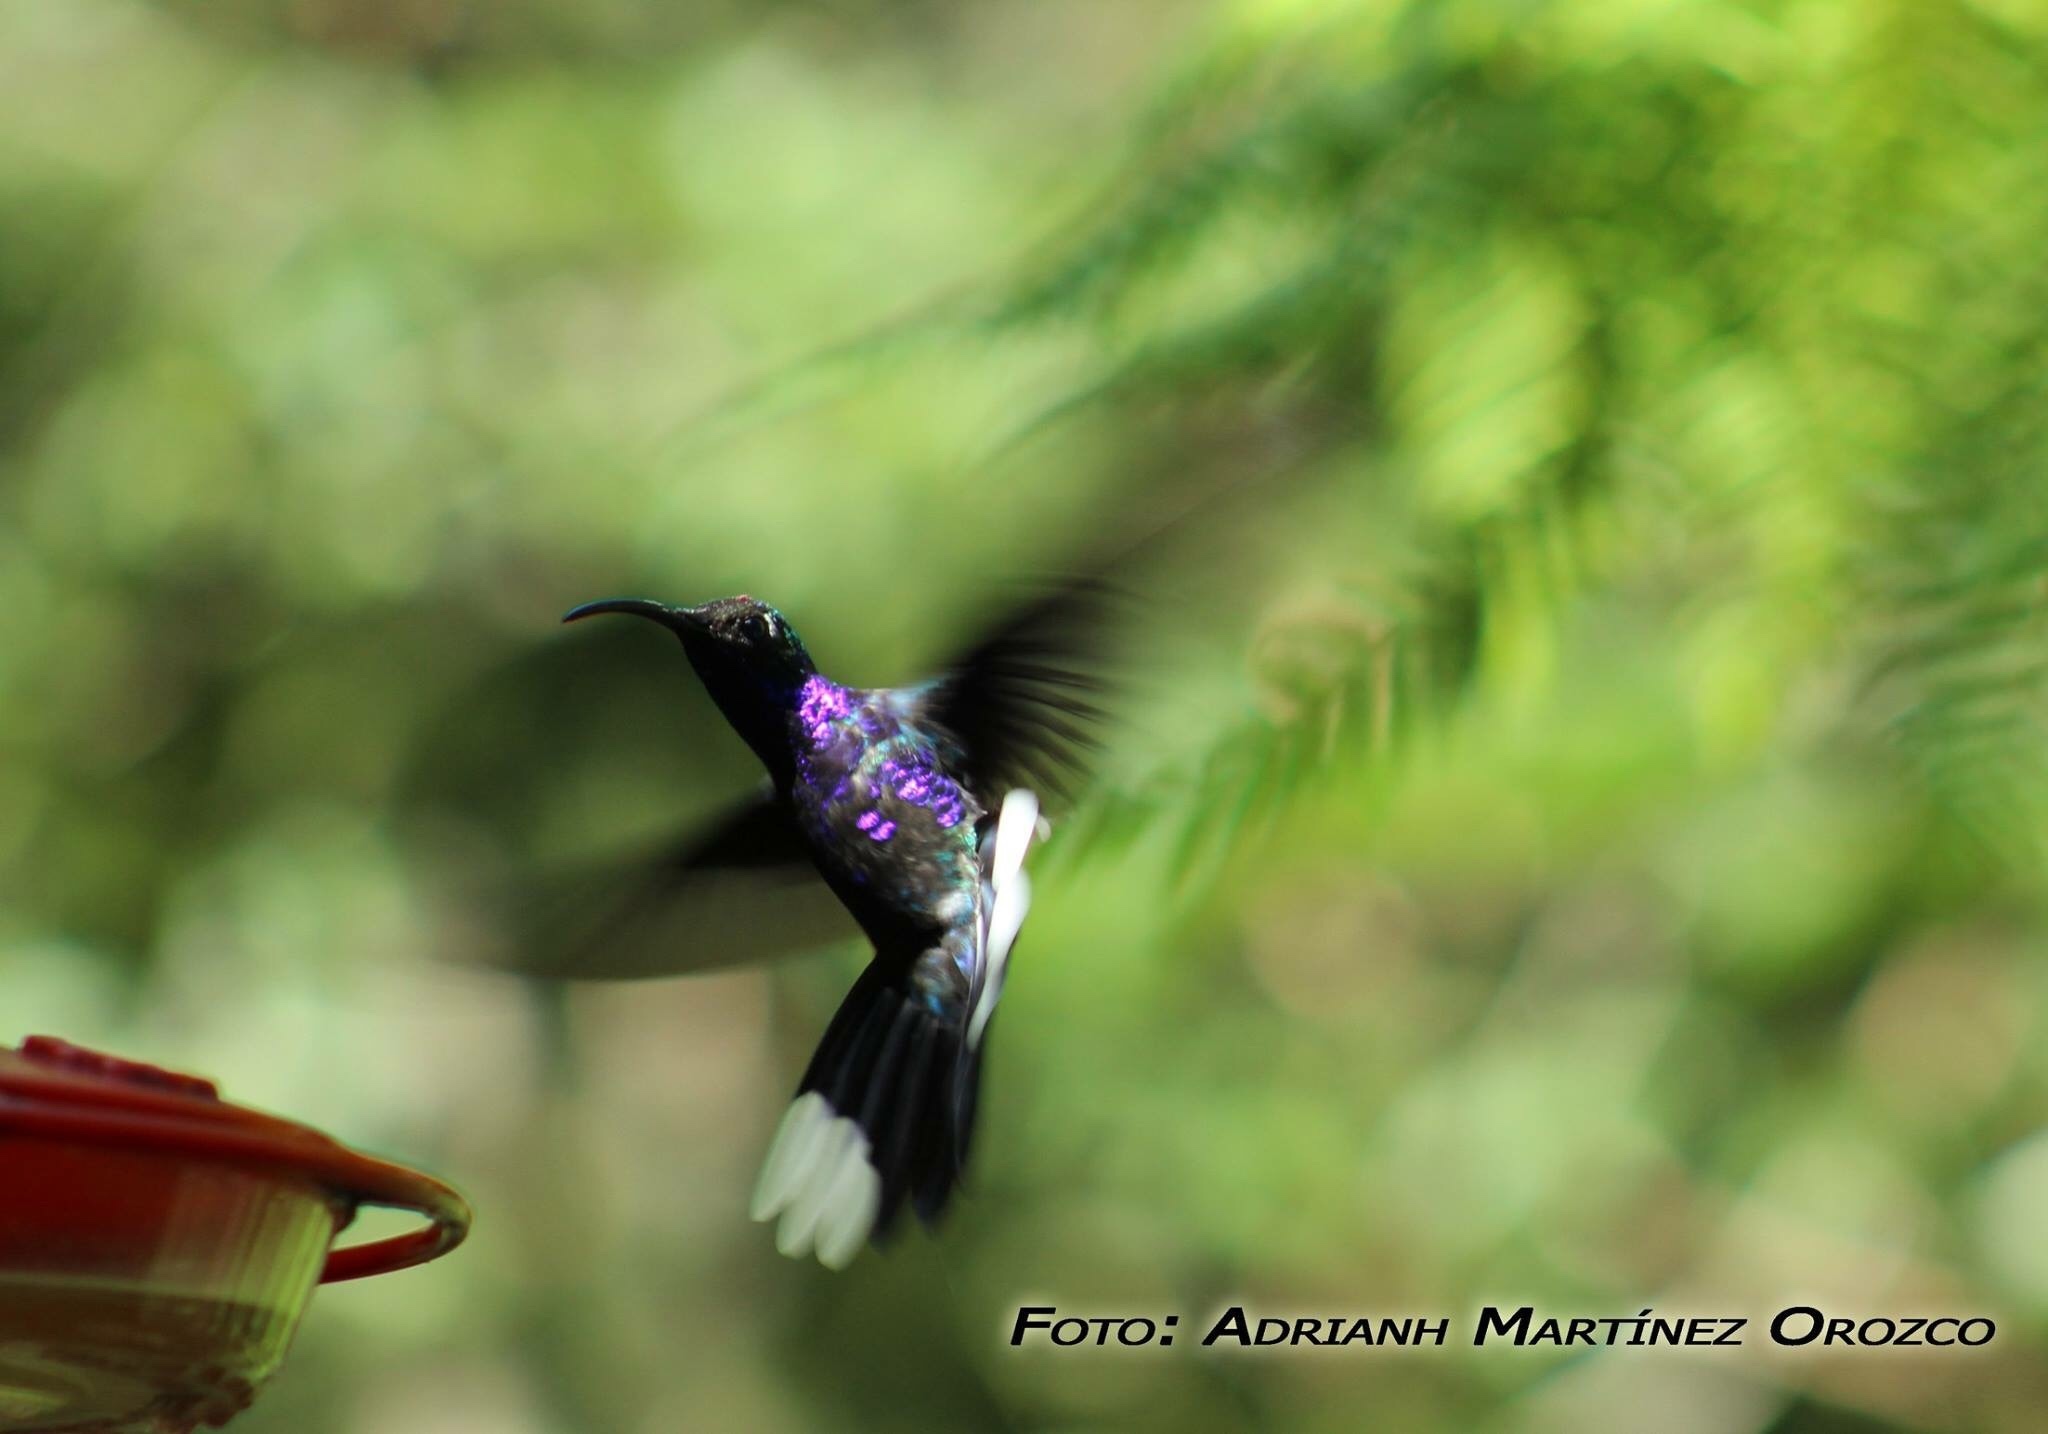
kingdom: Animalia
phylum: Chordata
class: Aves
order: Apodiformes
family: Trochilidae
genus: Campylopterus
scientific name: Campylopterus hemileucurus
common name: Violet sabrewing
